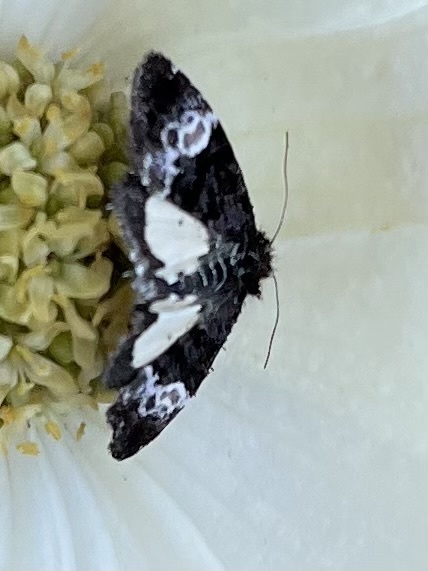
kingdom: Animalia
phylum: Arthropoda
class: Insecta
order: Lepidoptera
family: Noctuidae
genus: Annaphila
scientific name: Annaphila diva
